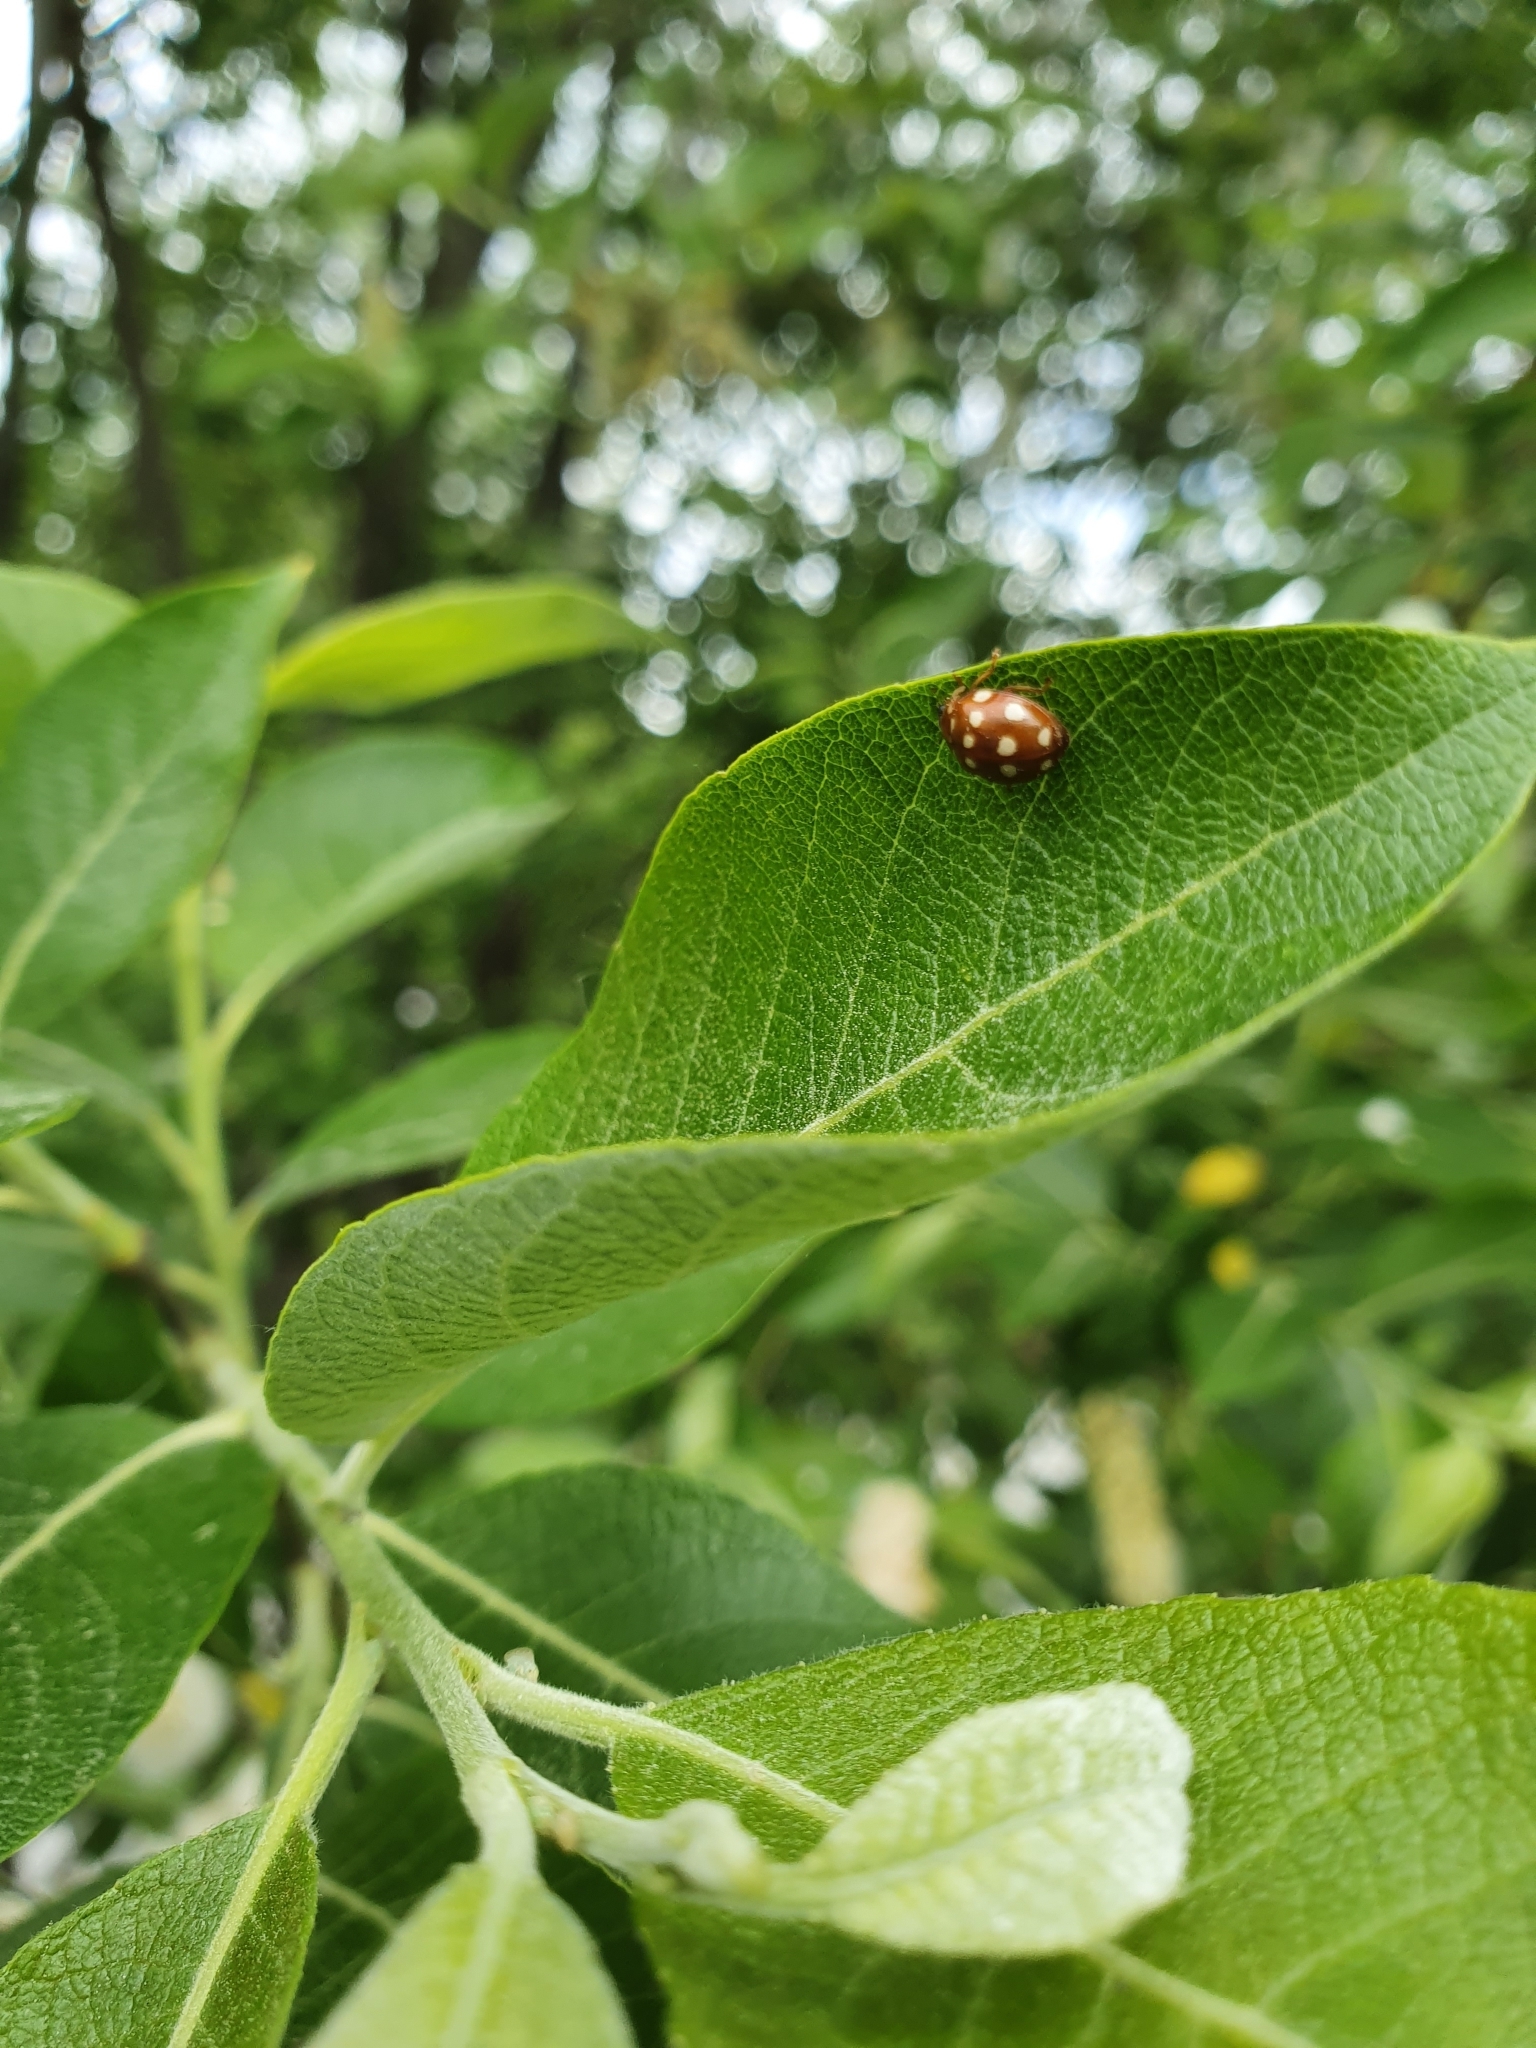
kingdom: Animalia
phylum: Arthropoda
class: Insecta
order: Coleoptera
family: Coccinellidae
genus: Calvia
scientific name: Calvia quatuordecimguttata
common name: Cream-spot ladybird
